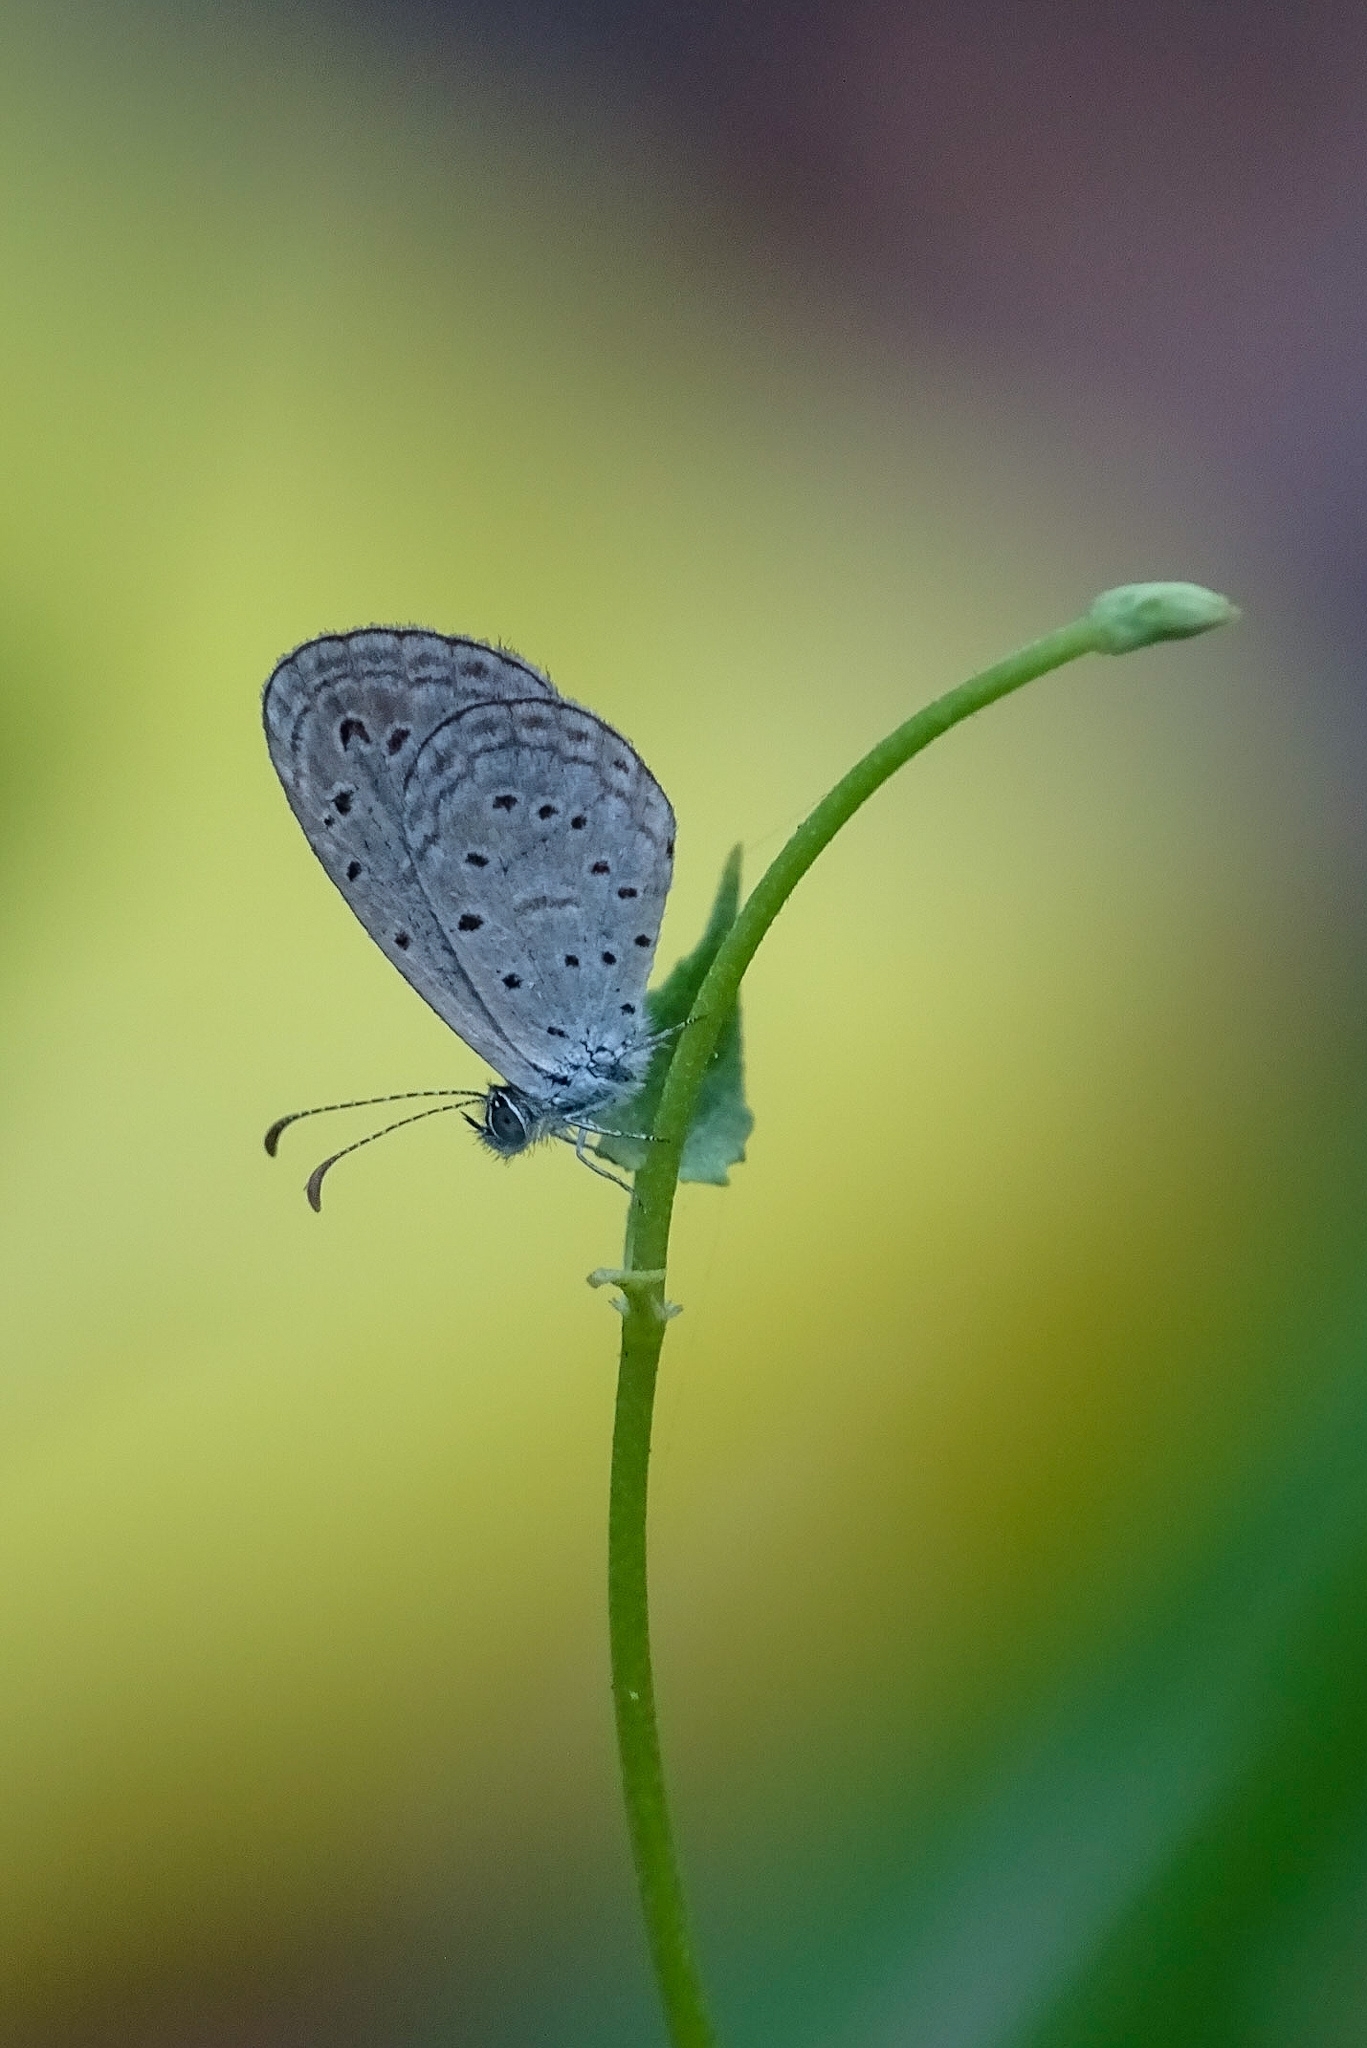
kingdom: Animalia
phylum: Arthropoda
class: Insecta
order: Lepidoptera
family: Lycaenidae
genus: Zizula
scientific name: Zizula hylax
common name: Gaika blue
